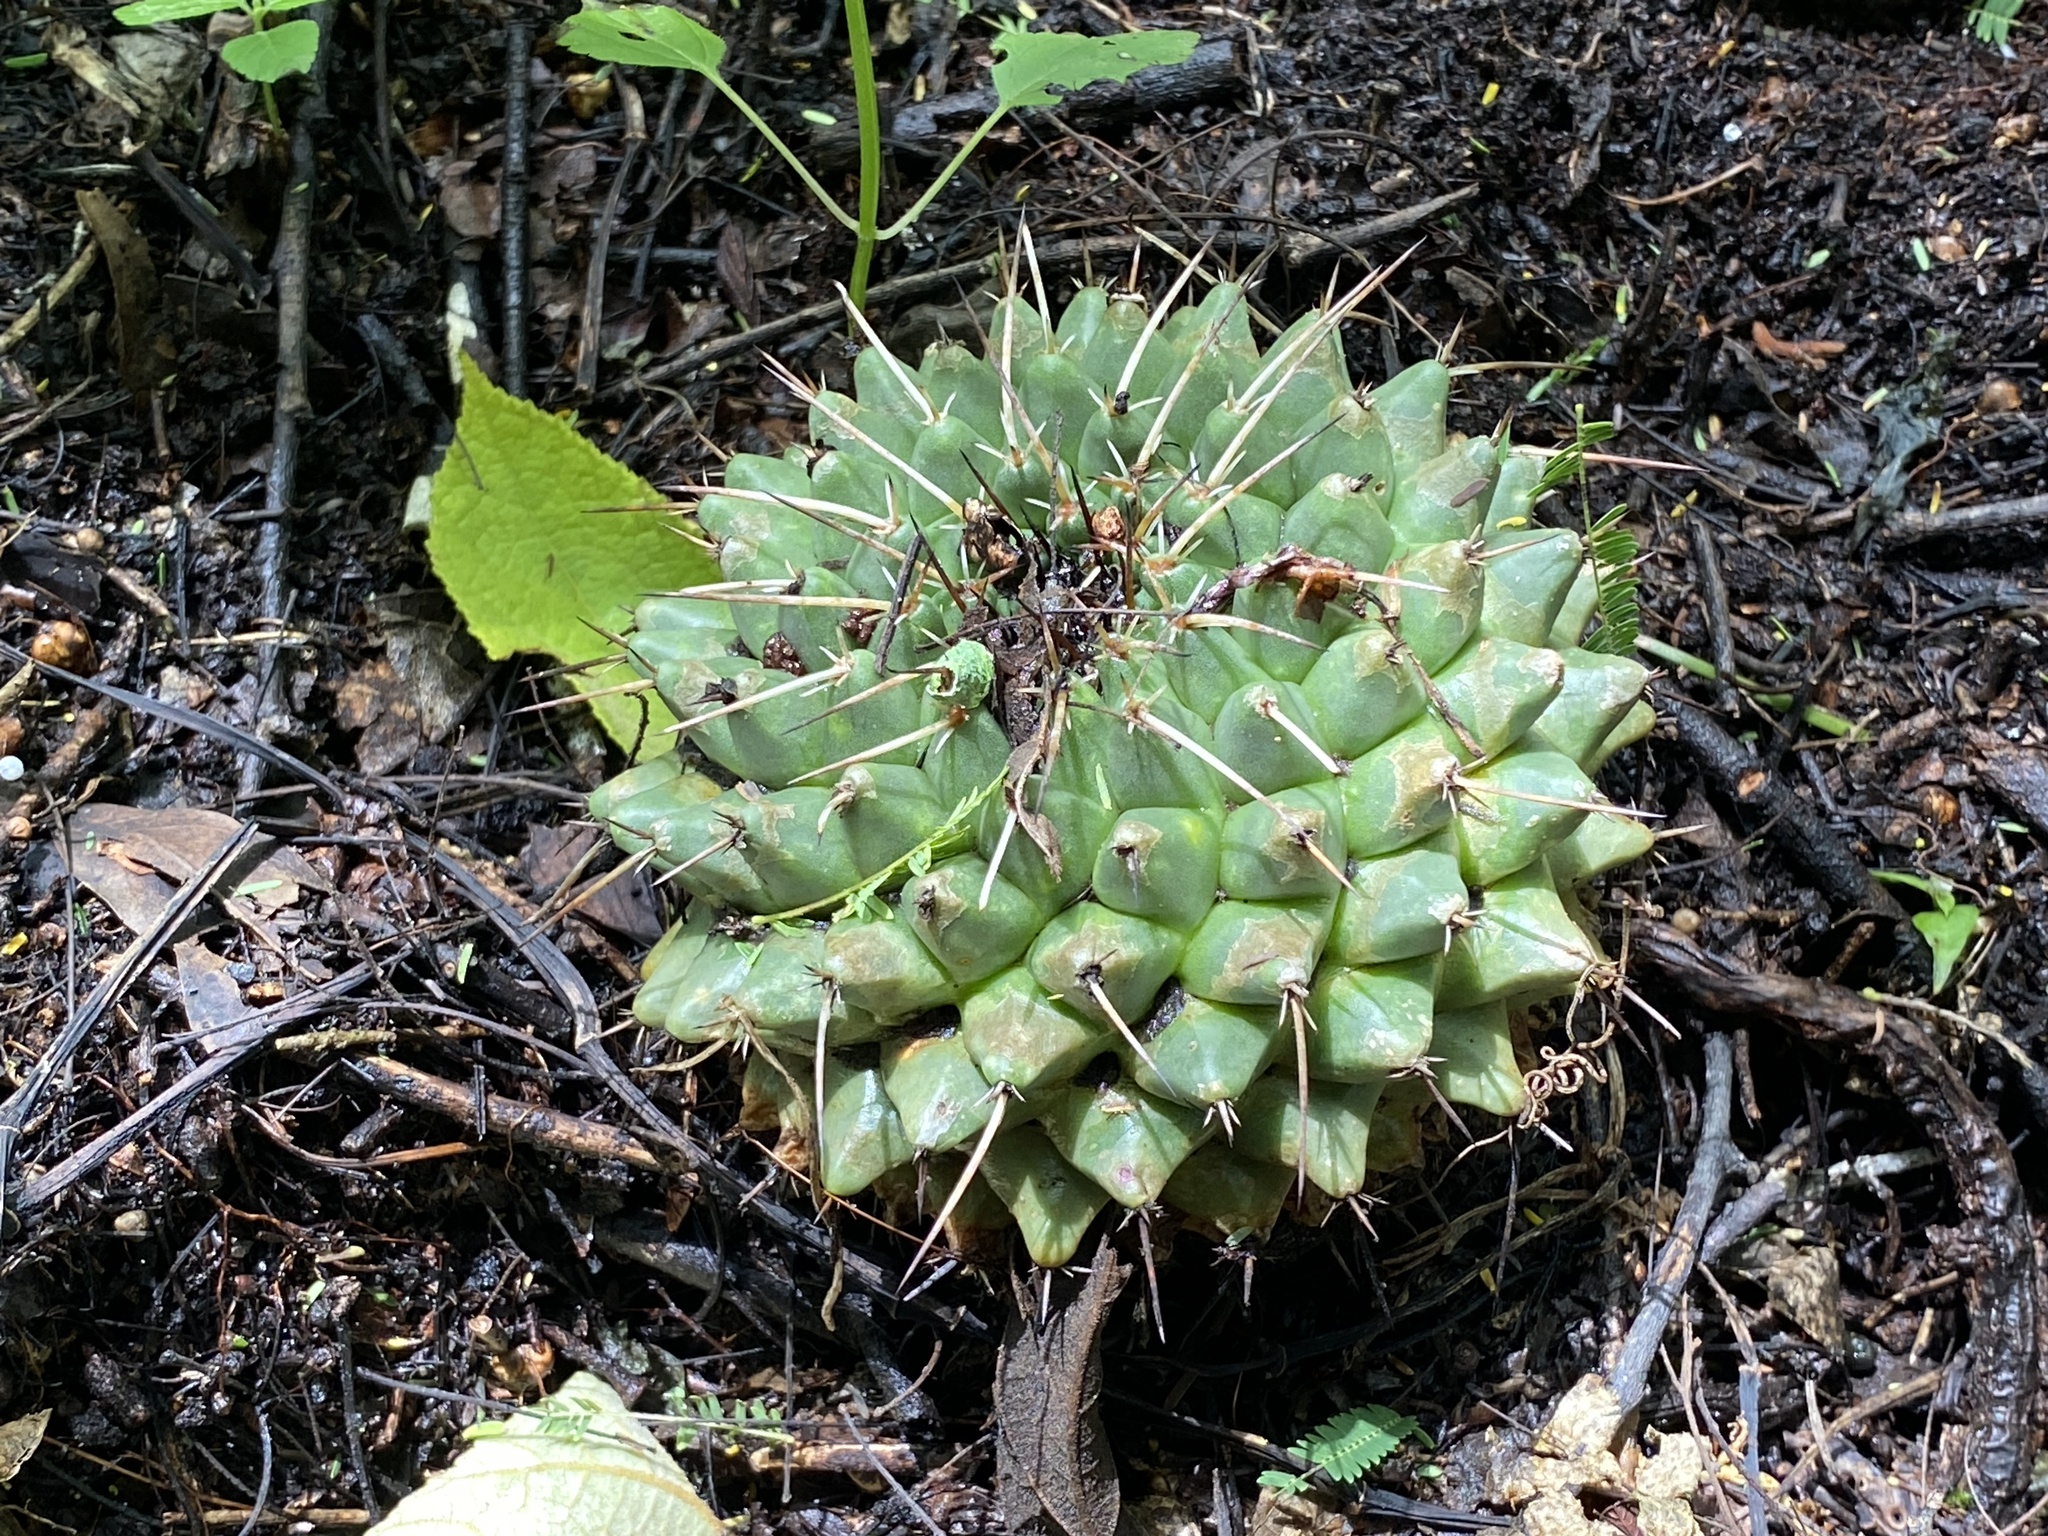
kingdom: Plantae
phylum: Tracheophyta
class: Magnoliopsida
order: Caryophyllales
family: Cactaceae
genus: Mammillaria
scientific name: Mammillaria magnimamma
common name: Mexican pincushion
